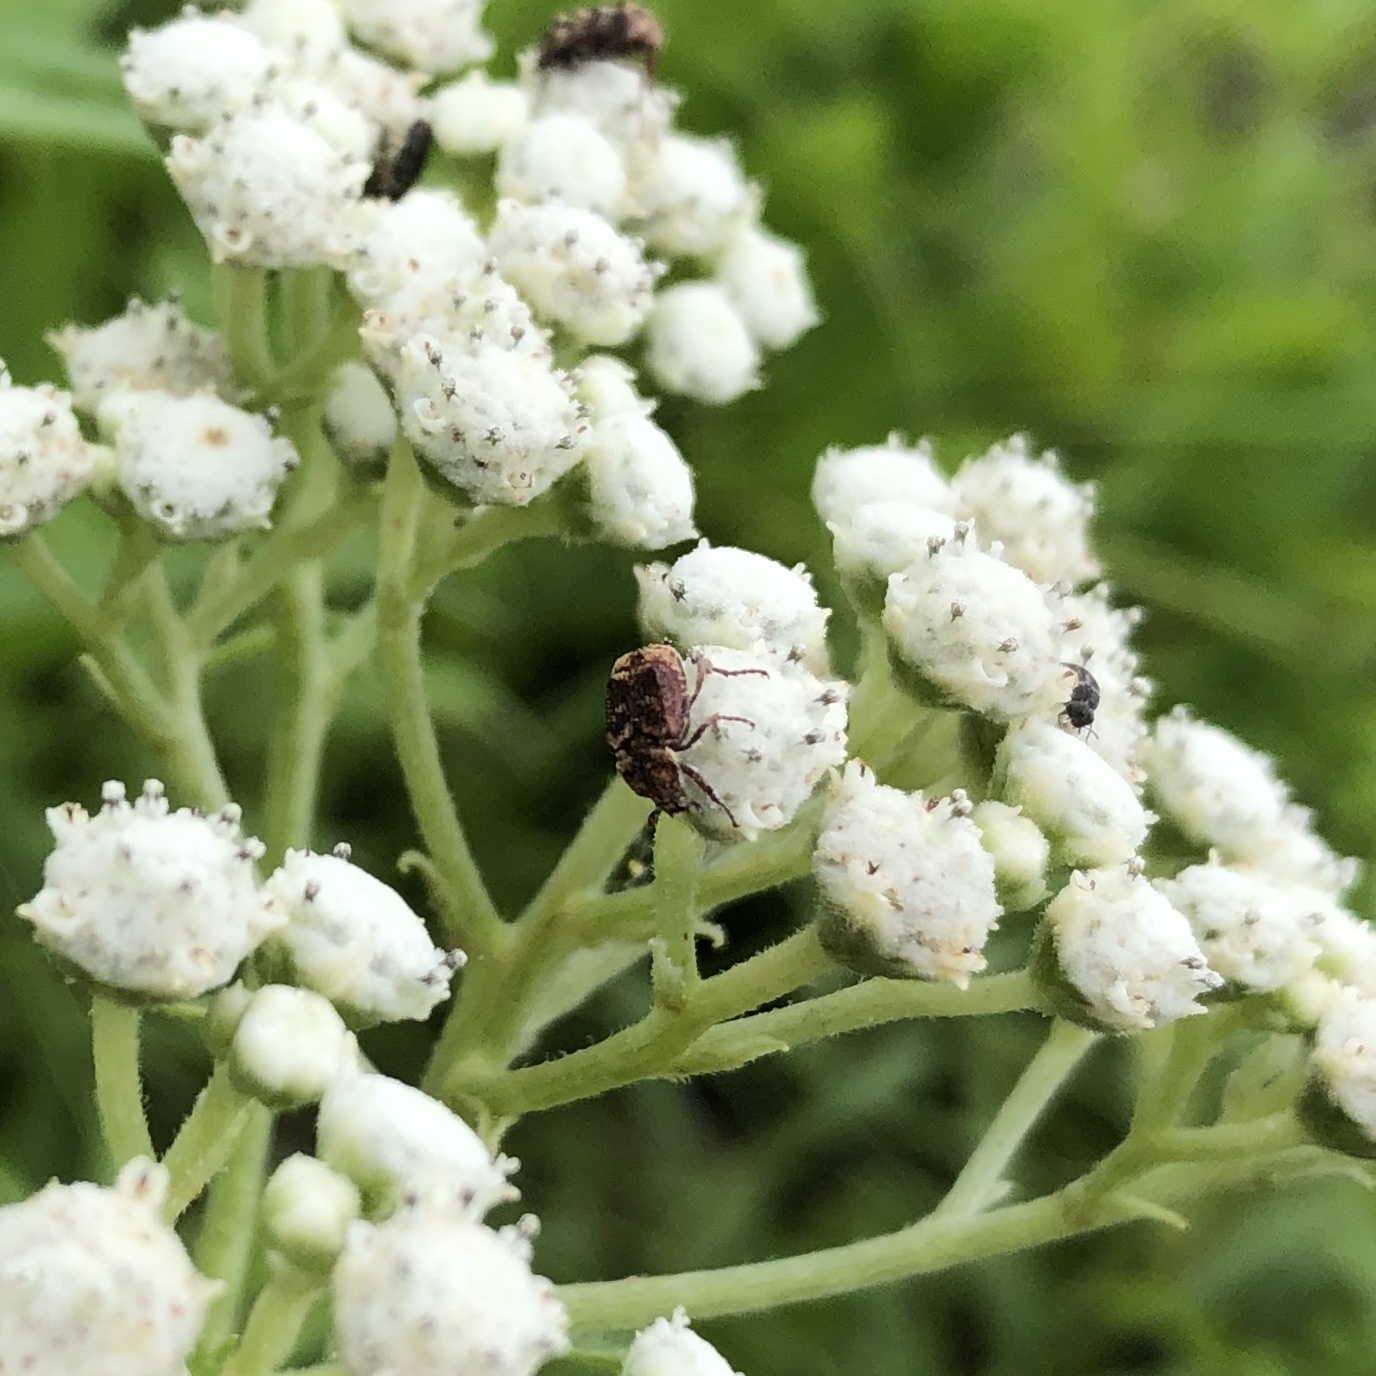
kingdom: Animalia
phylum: Arthropoda
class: Insecta
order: Coleoptera
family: Scarabaeidae
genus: Valgus
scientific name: Valgus
